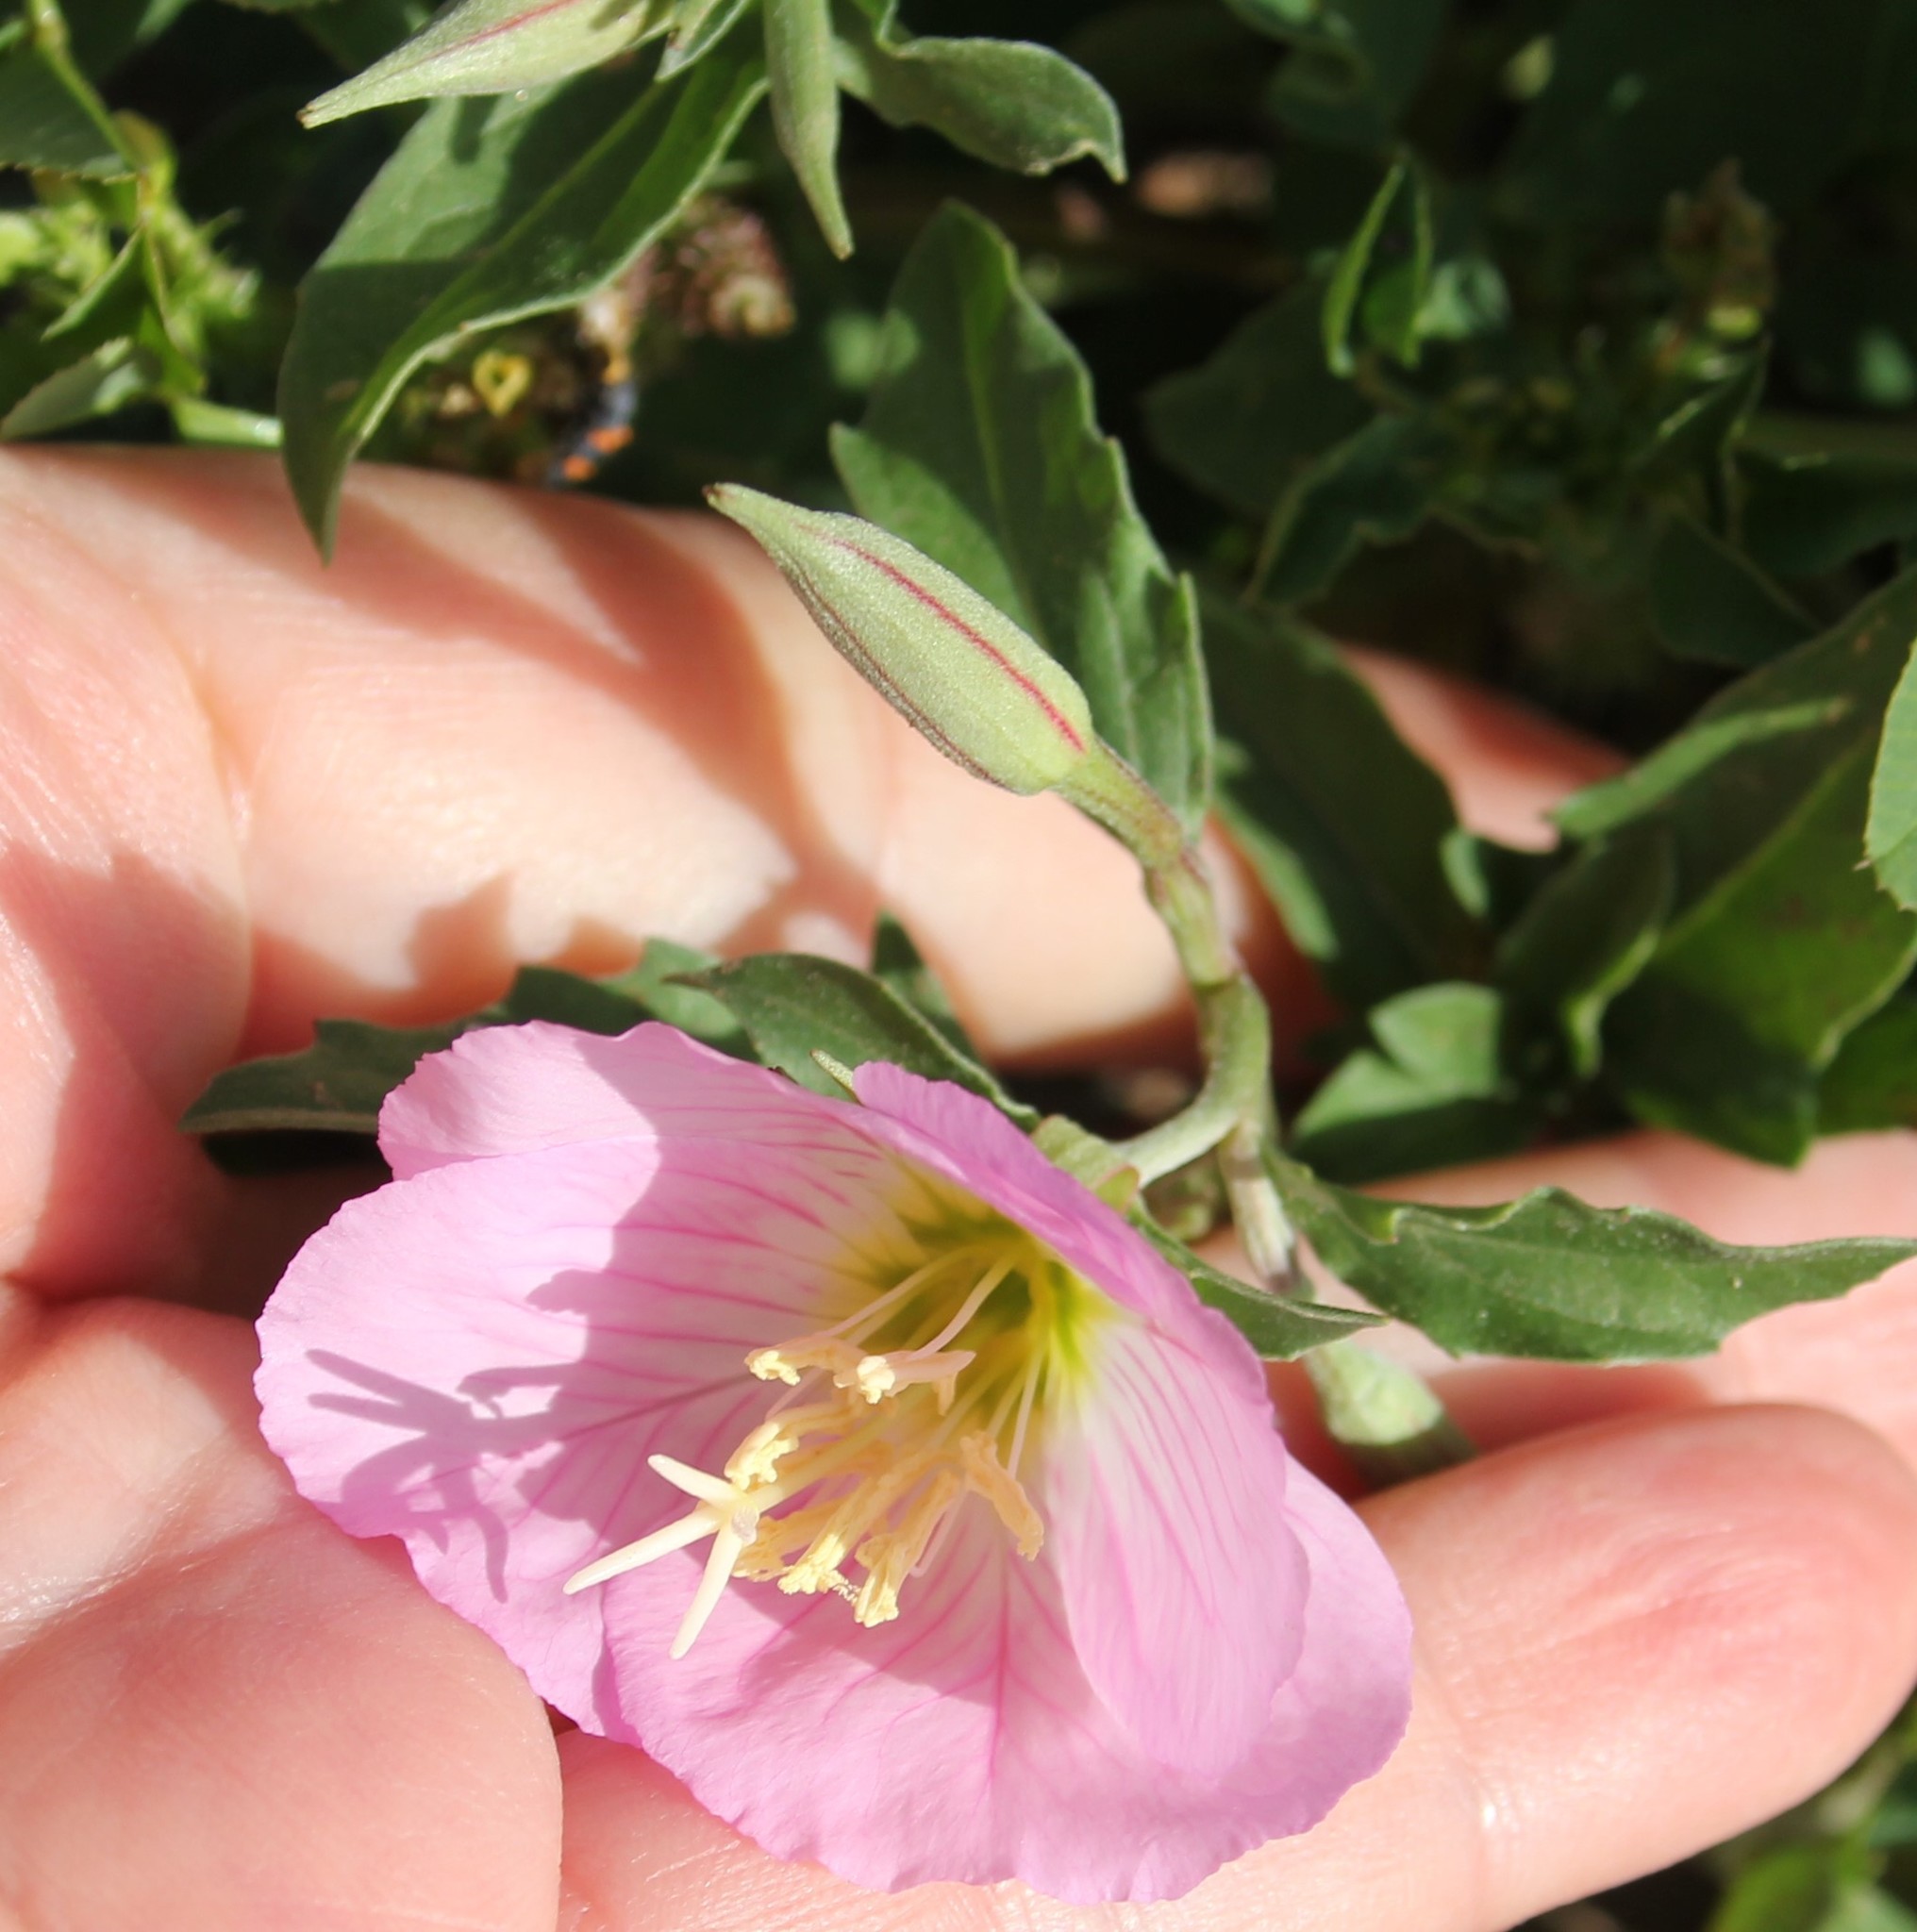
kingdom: Plantae
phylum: Tracheophyta
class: Magnoliopsida
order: Myrtales
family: Onagraceae
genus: Oenothera
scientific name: Oenothera speciosa
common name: White evening-primrose
